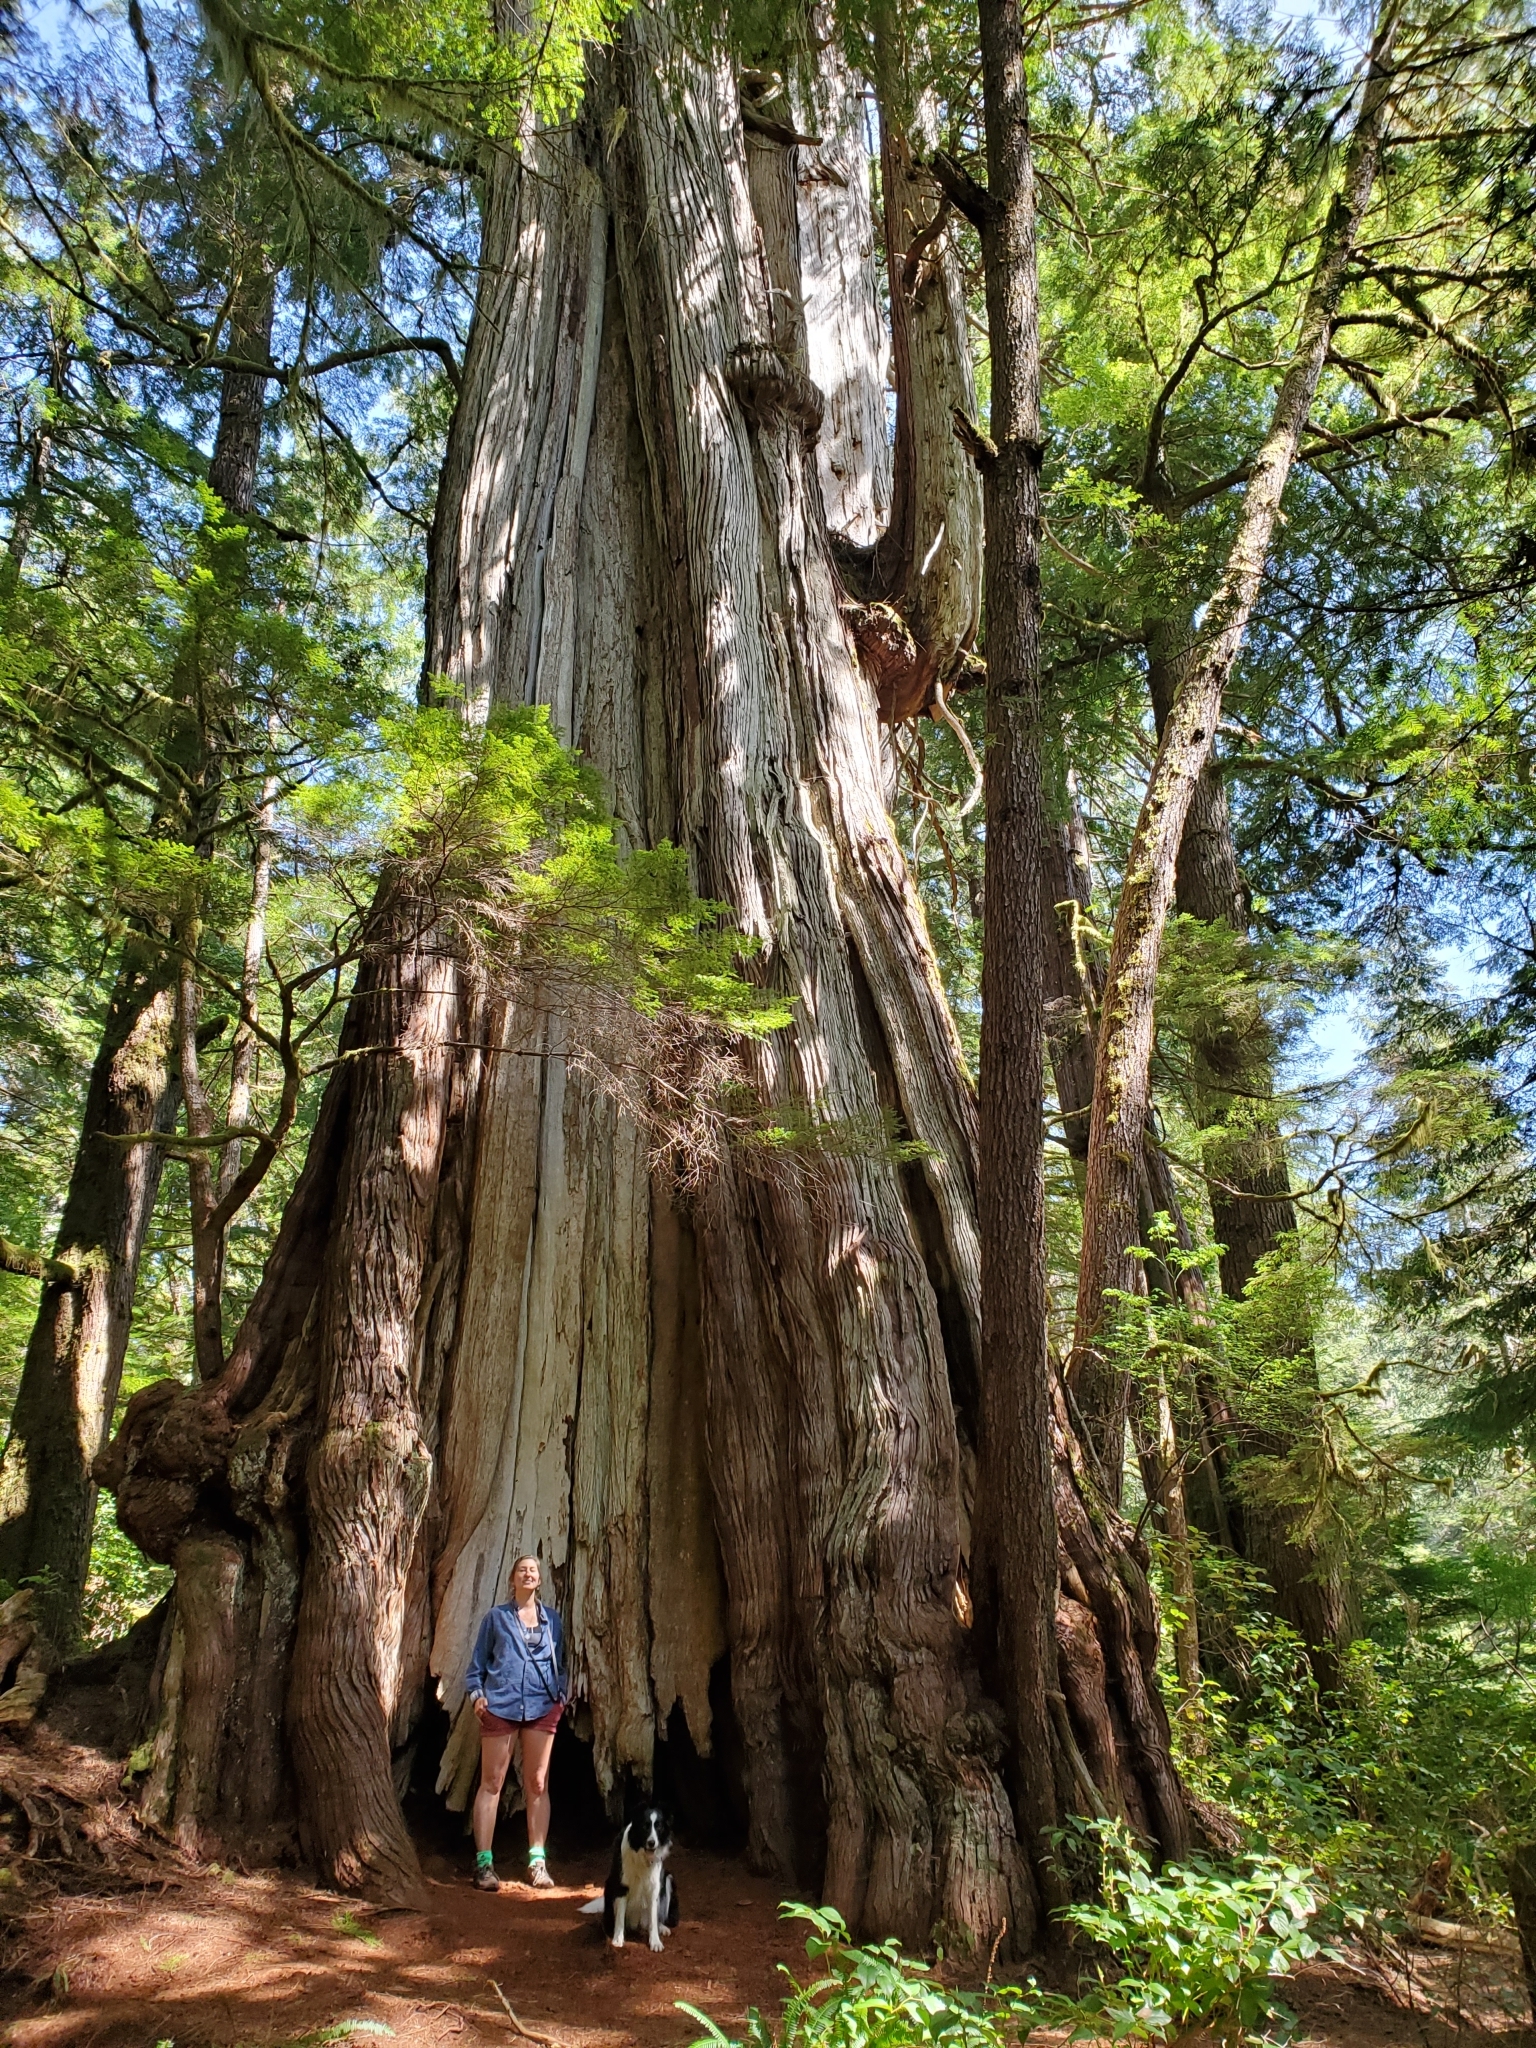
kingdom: Plantae
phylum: Tracheophyta
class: Pinopsida
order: Pinales
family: Cupressaceae
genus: Thuja
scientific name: Thuja plicata
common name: Western red-cedar
